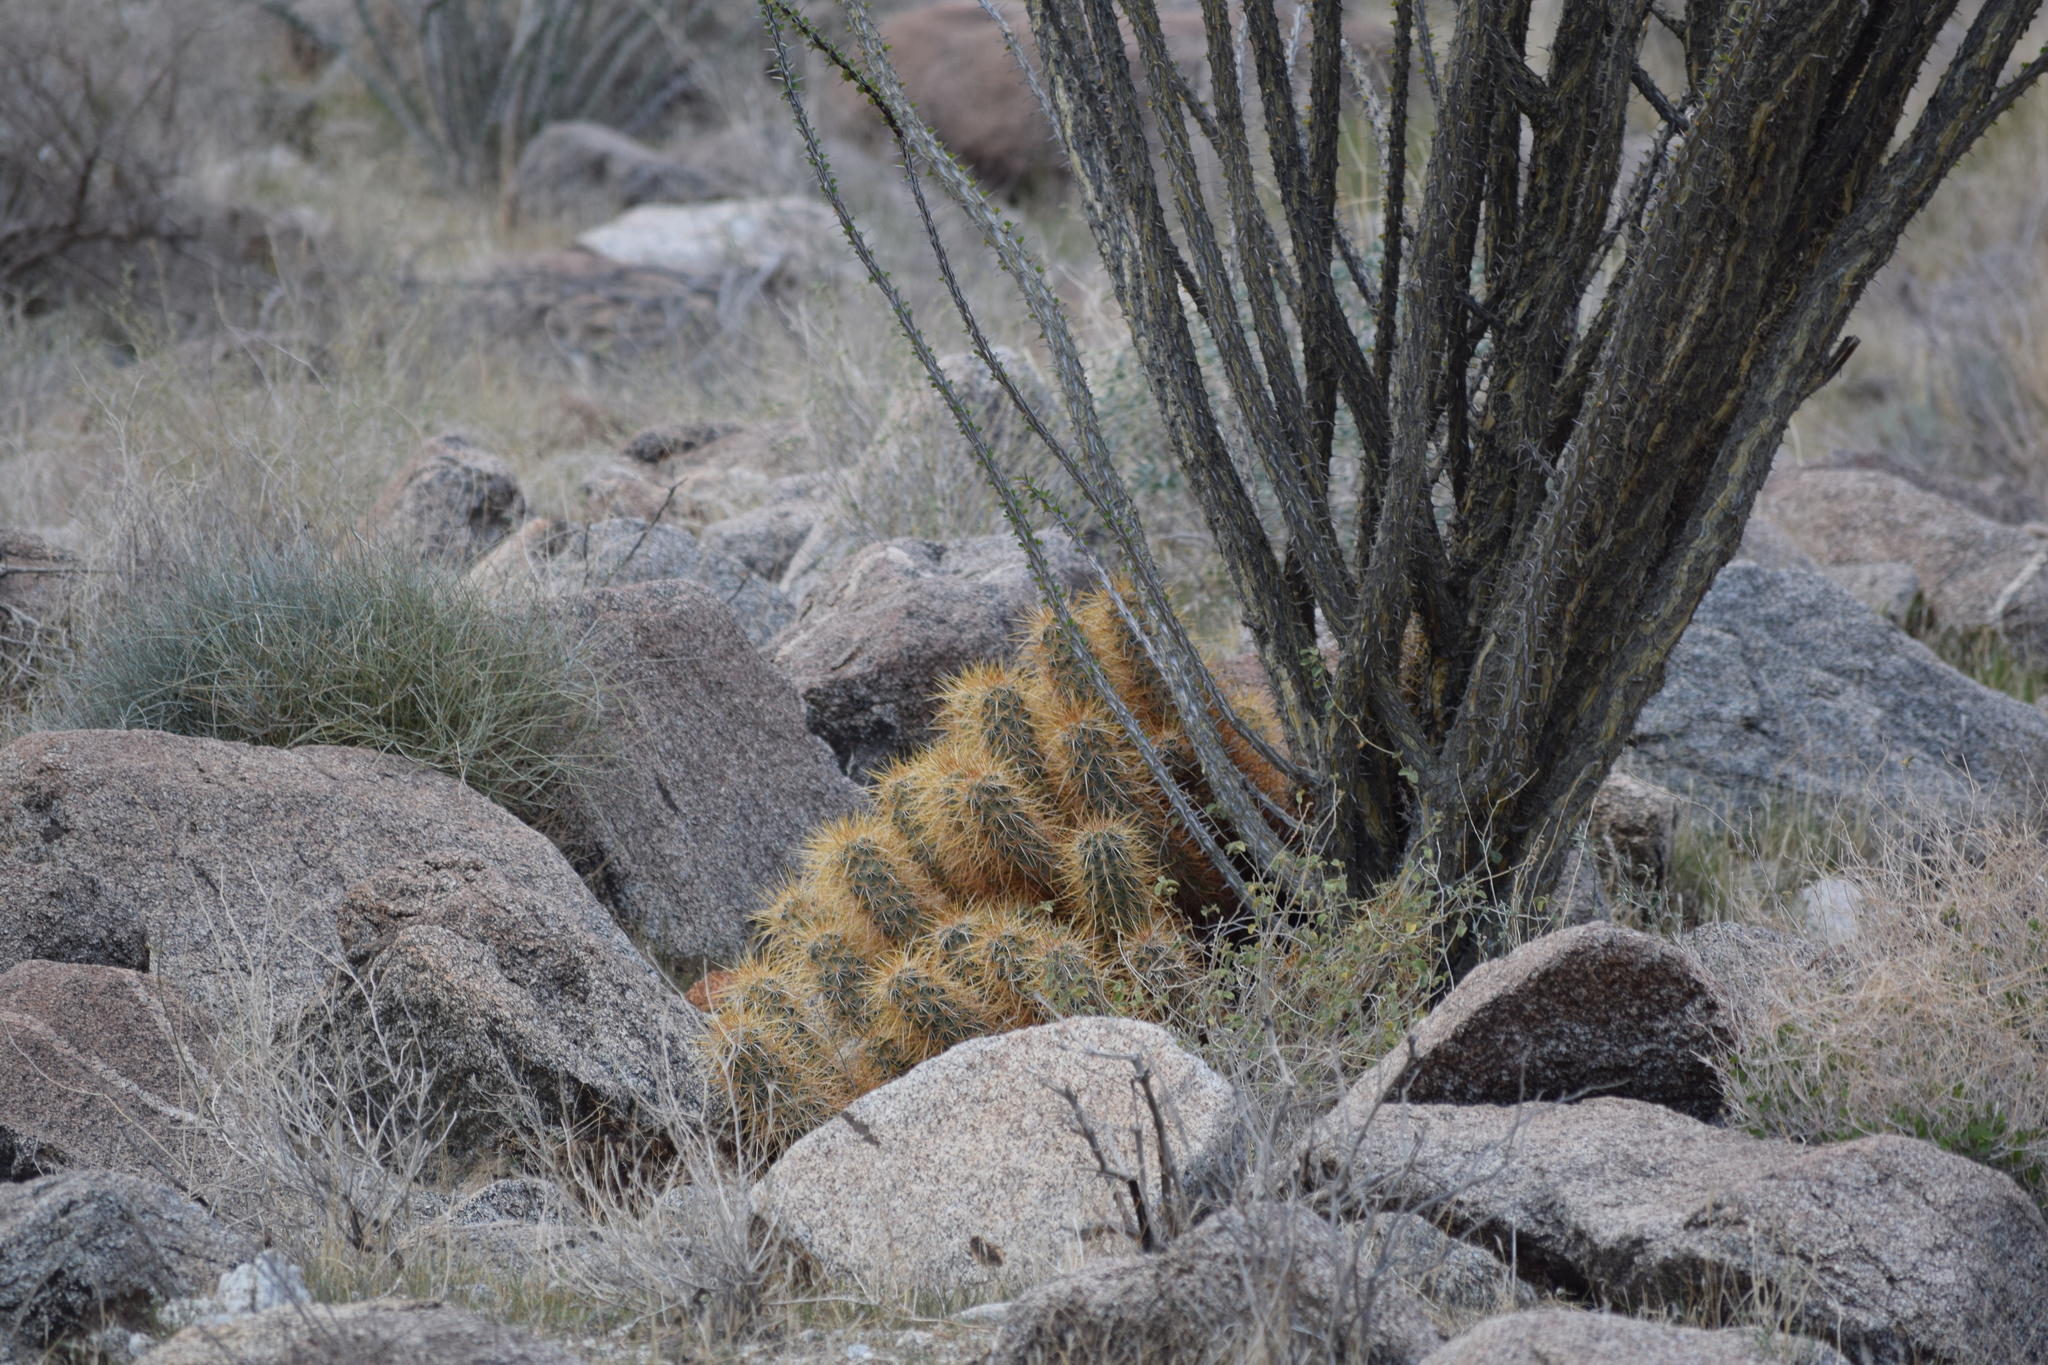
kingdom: Plantae
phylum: Tracheophyta
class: Magnoliopsida
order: Caryophyllales
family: Cactaceae
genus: Echinocereus
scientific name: Echinocereus engelmannii
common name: Engelmann's hedgehog cactus
